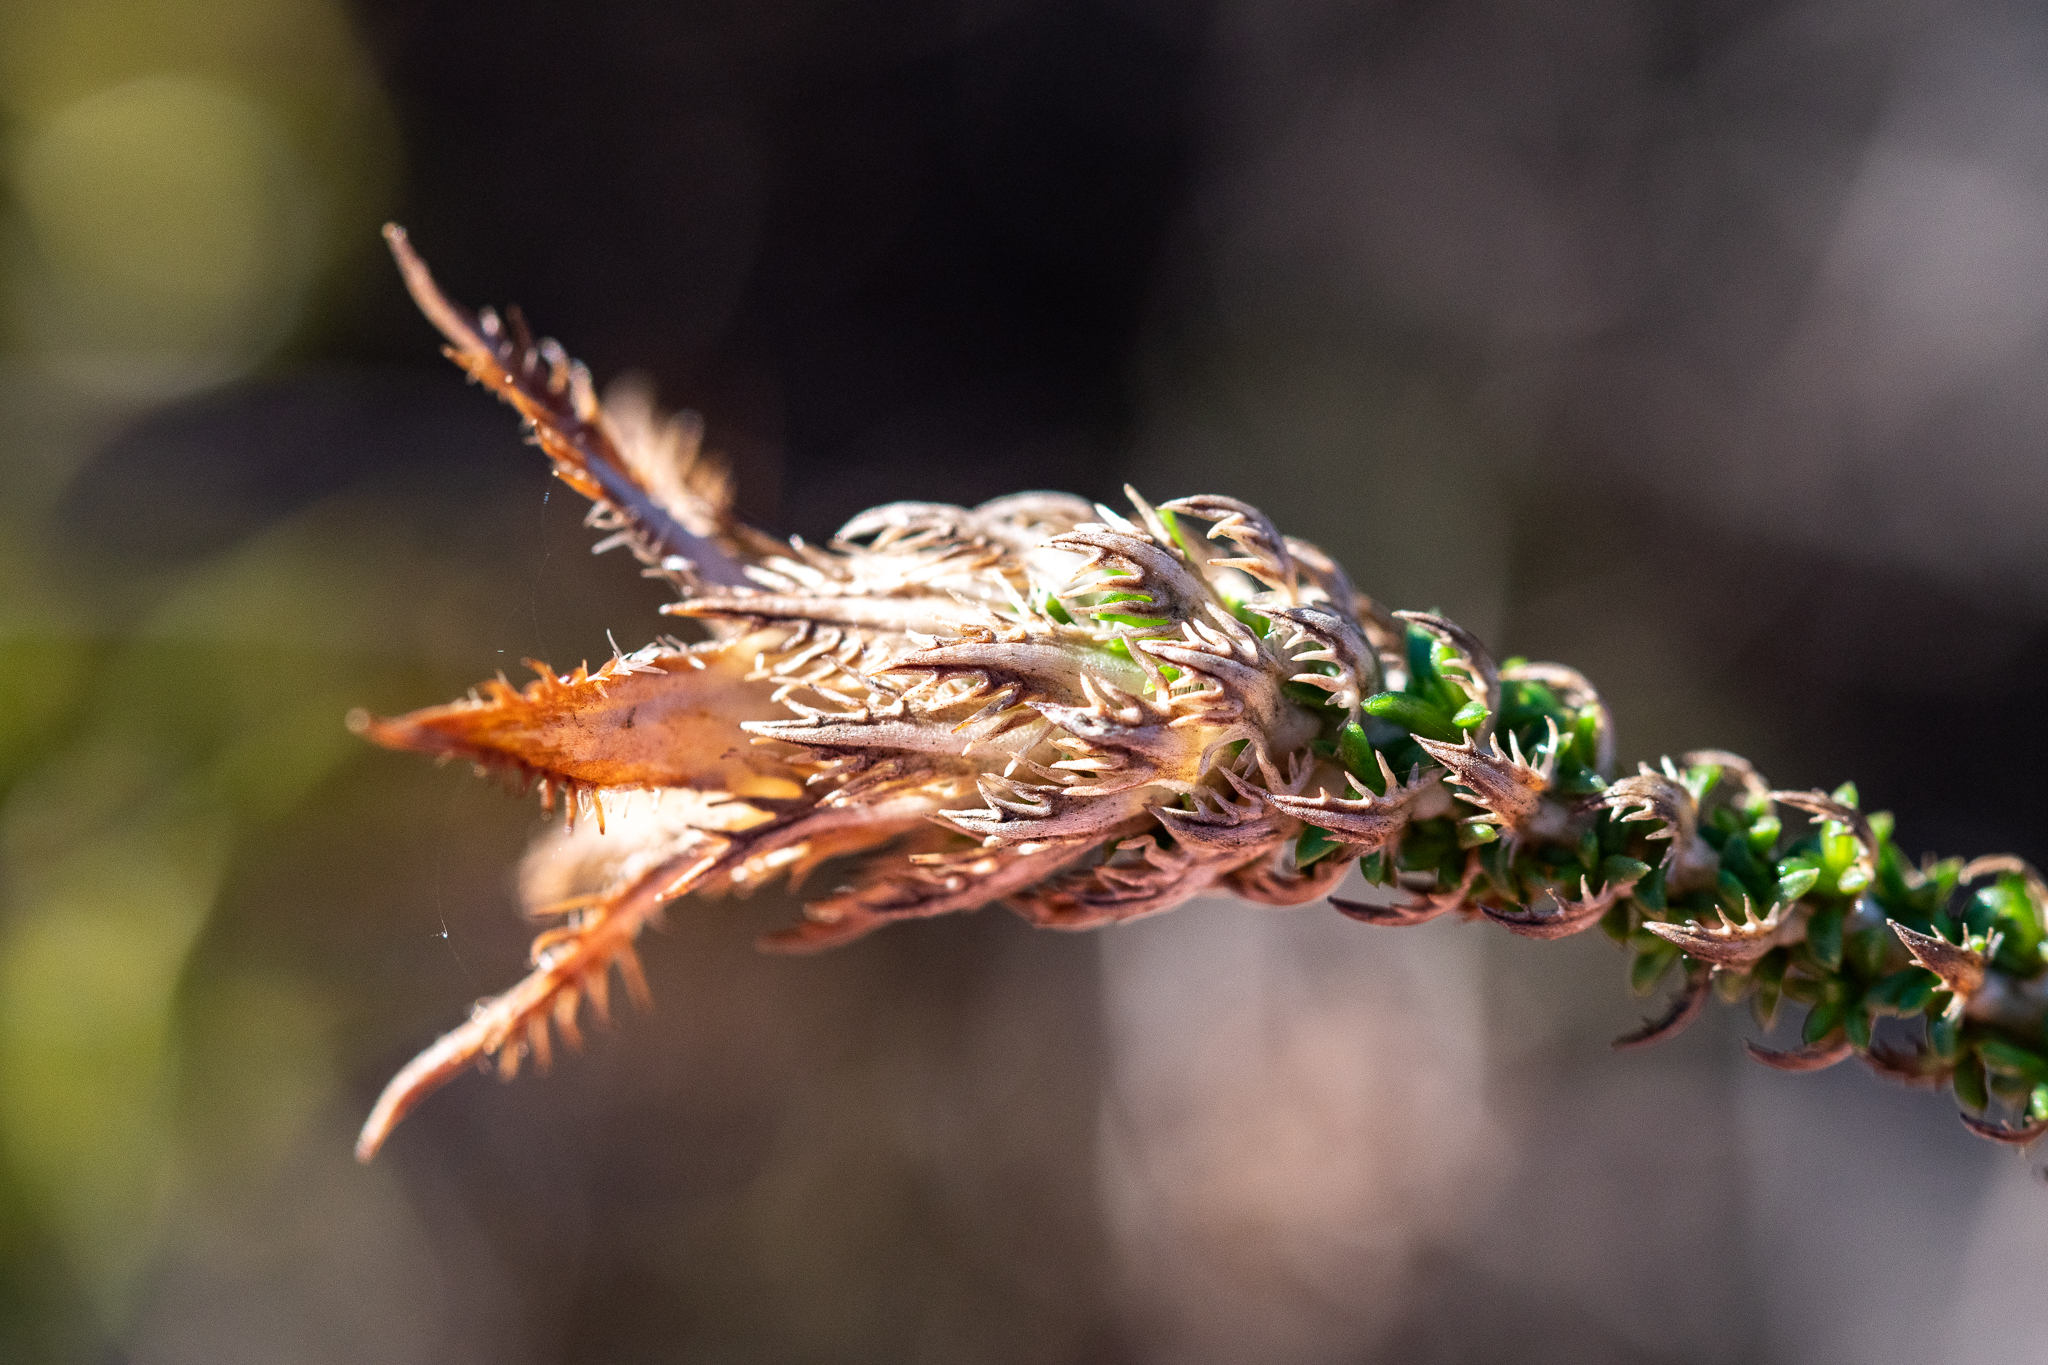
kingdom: Plantae
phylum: Tracheophyta
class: Magnoliopsida
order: Asterales
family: Campanulaceae
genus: Roella
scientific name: Roella ciliata
